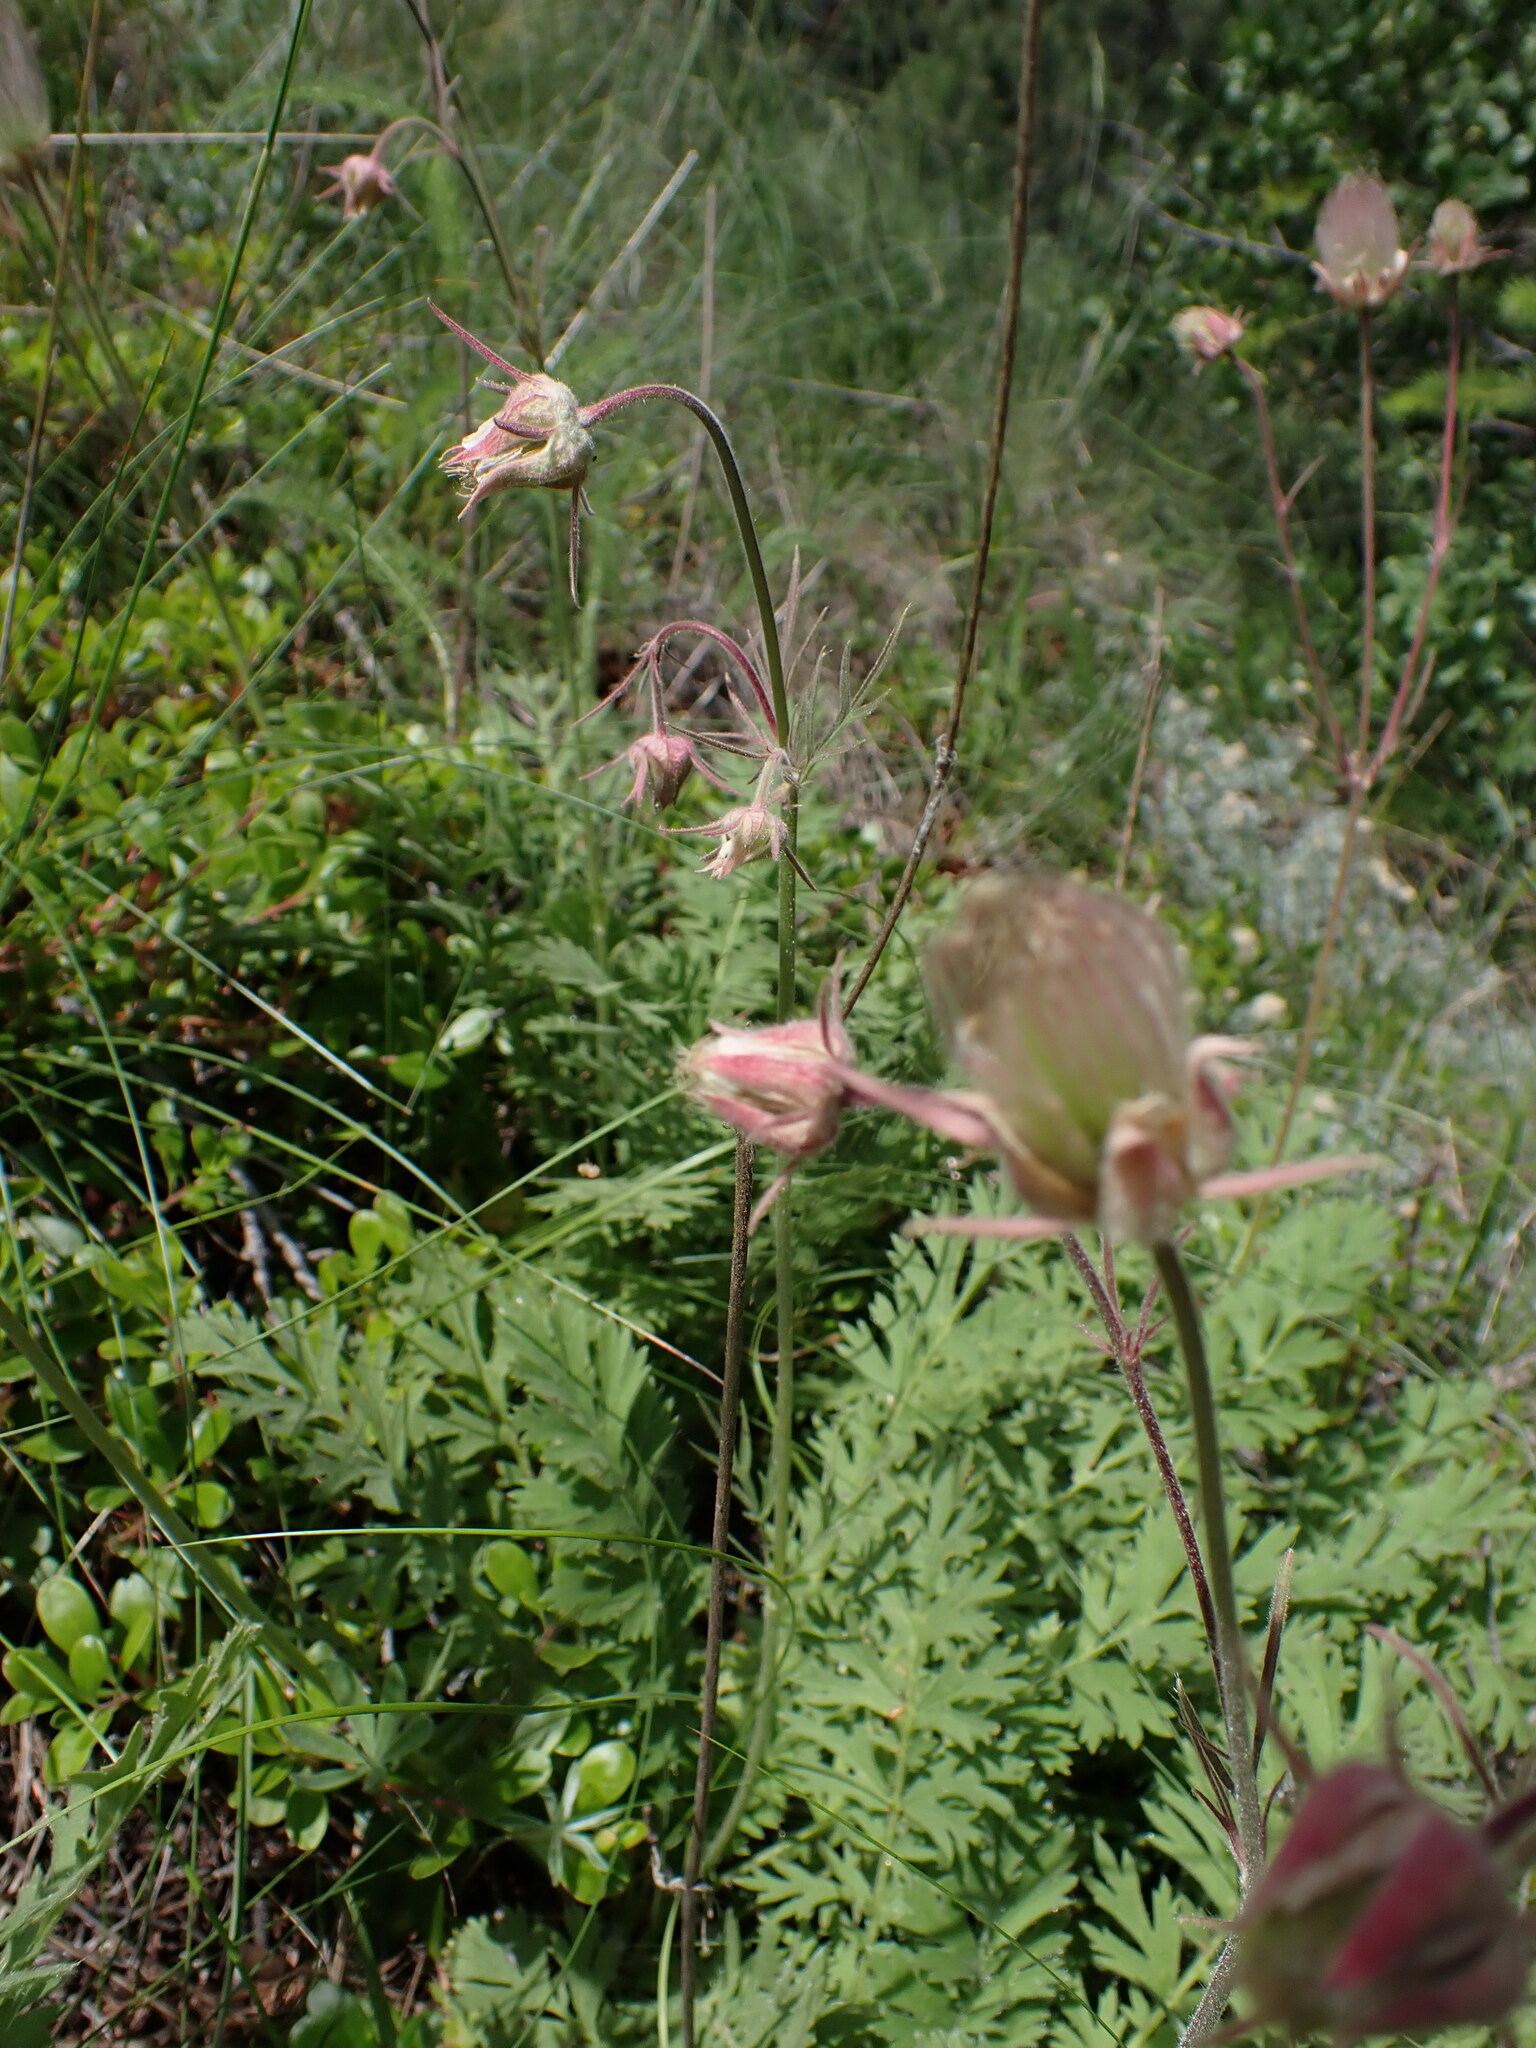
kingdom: Plantae
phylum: Tracheophyta
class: Magnoliopsida
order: Rosales
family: Rosaceae
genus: Geum
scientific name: Geum triflorum
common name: Old man's whiskers
